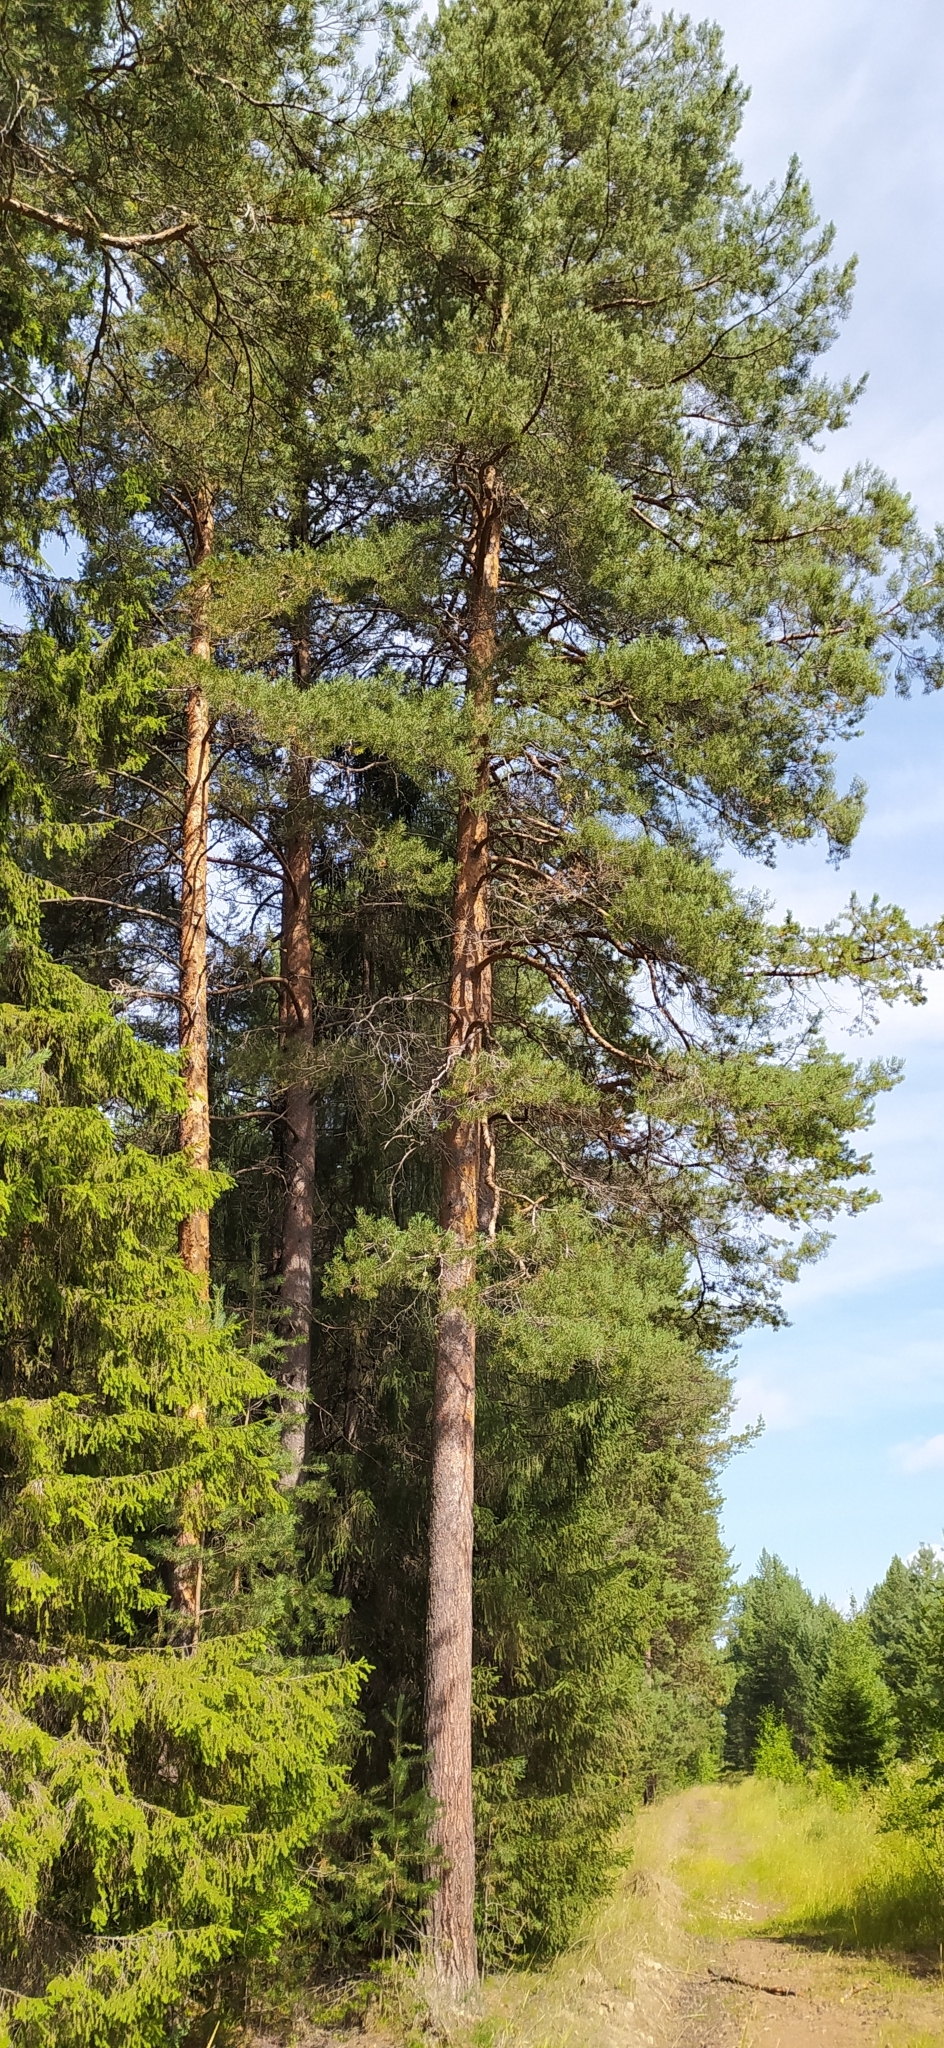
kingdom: Plantae
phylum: Tracheophyta
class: Pinopsida
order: Pinales
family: Pinaceae
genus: Pinus
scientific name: Pinus sylvestris
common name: Scots pine
